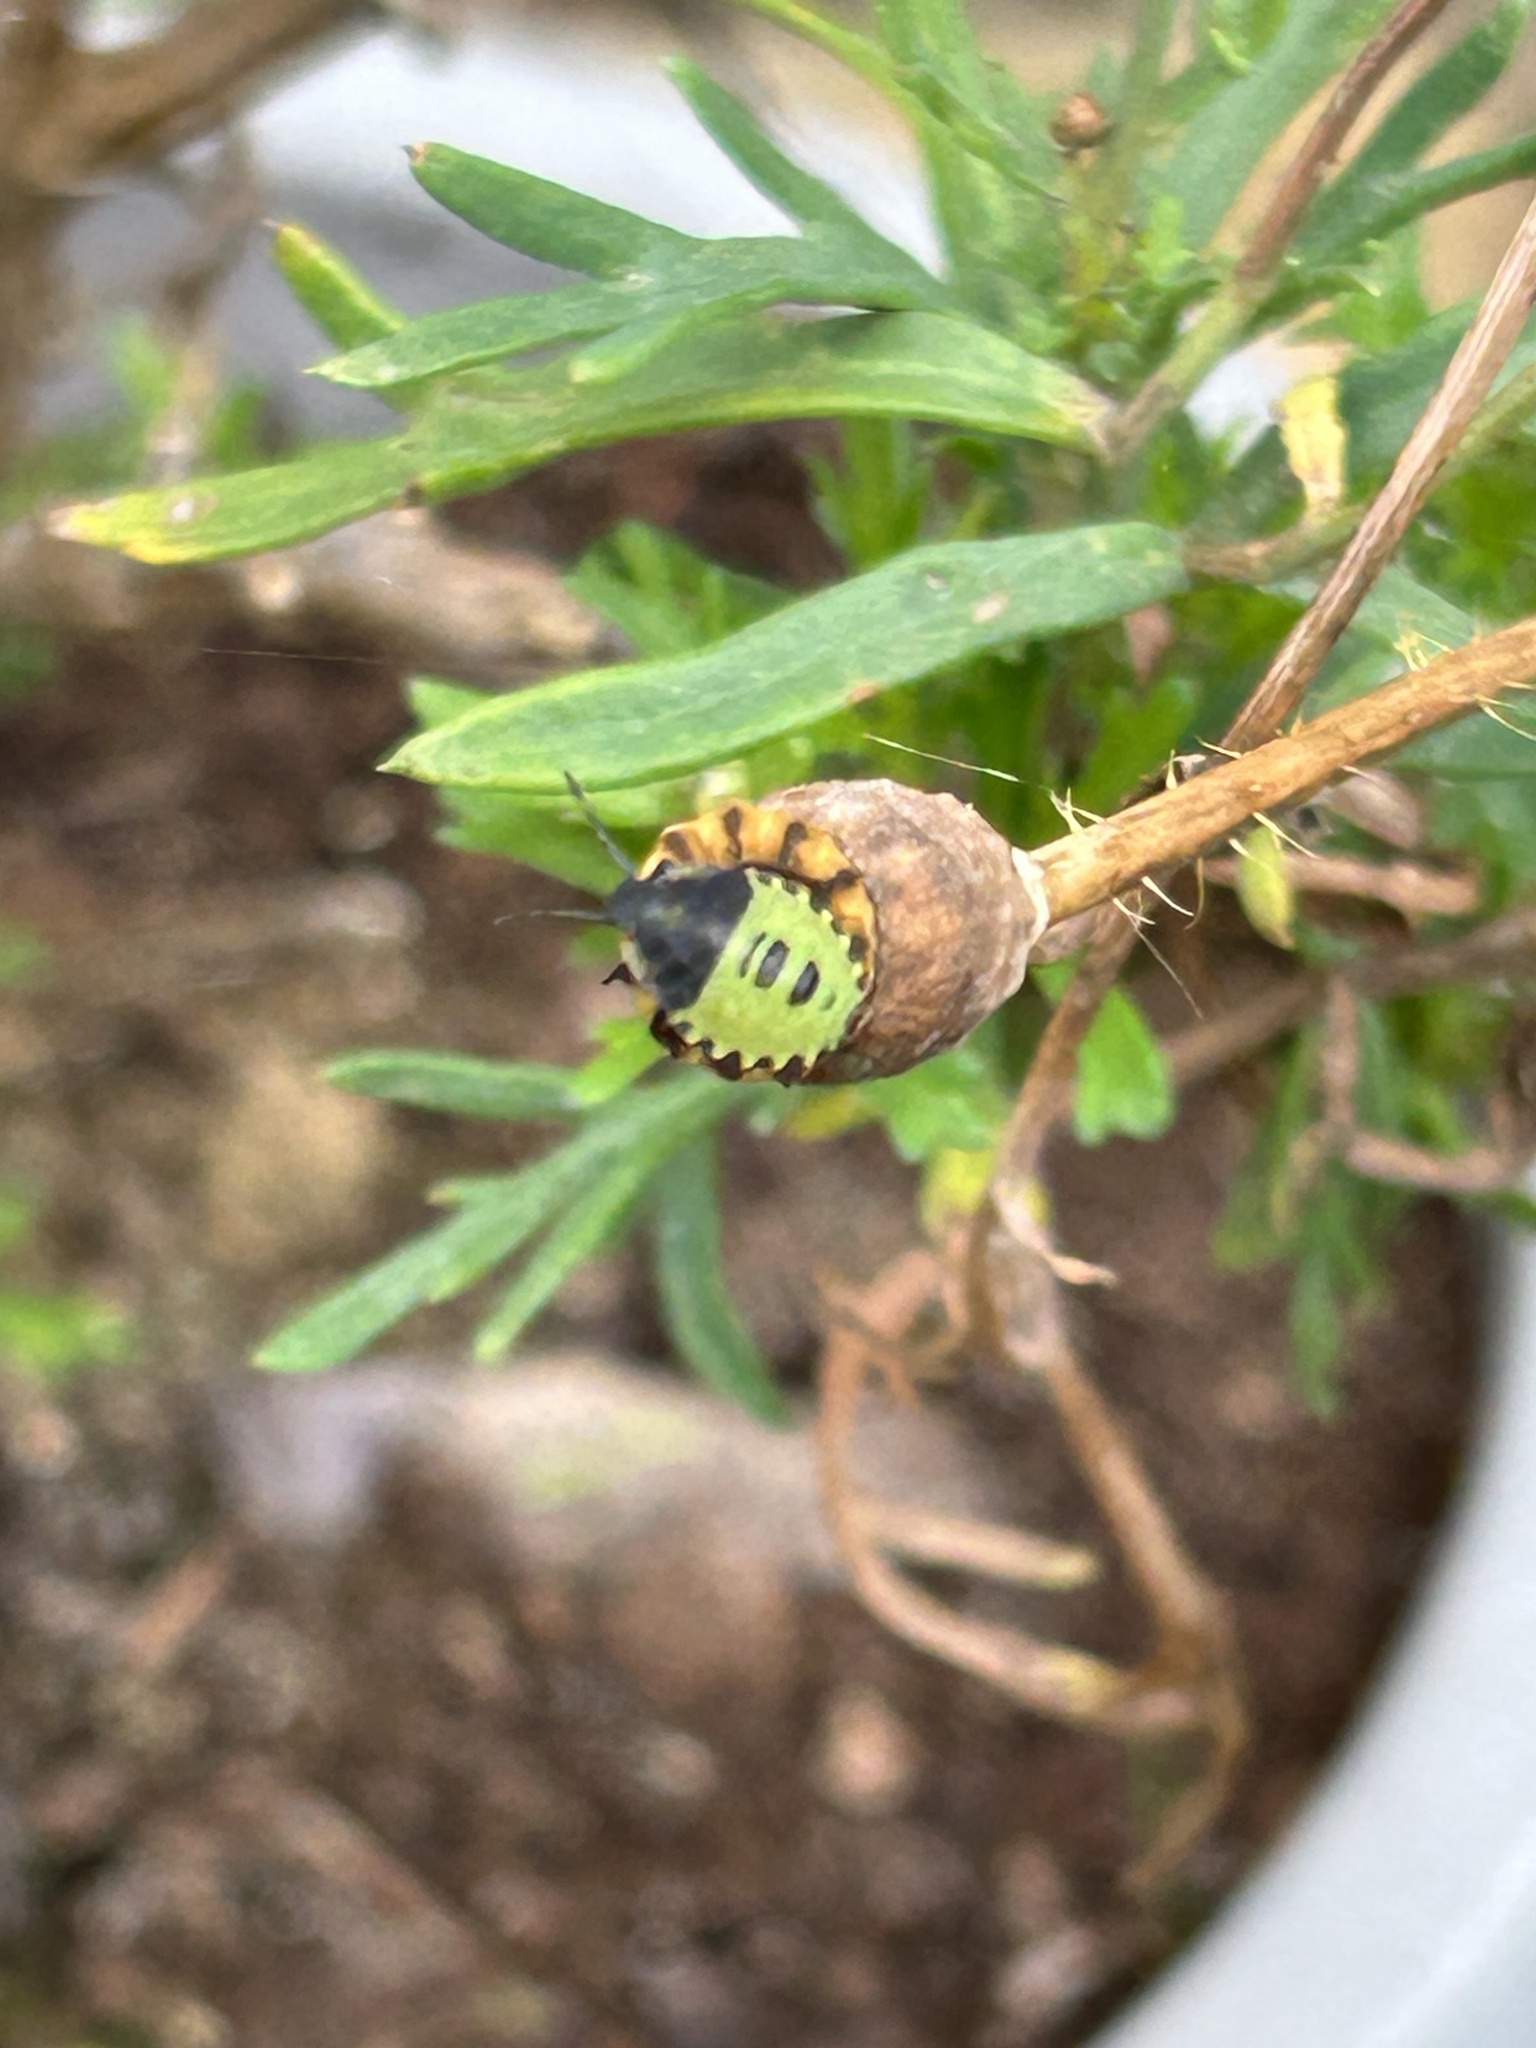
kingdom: Animalia
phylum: Arthropoda
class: Insecta
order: Hemiptera
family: Pentatomidae
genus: Palomena
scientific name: Palomena prasina
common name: Green shieldbug
